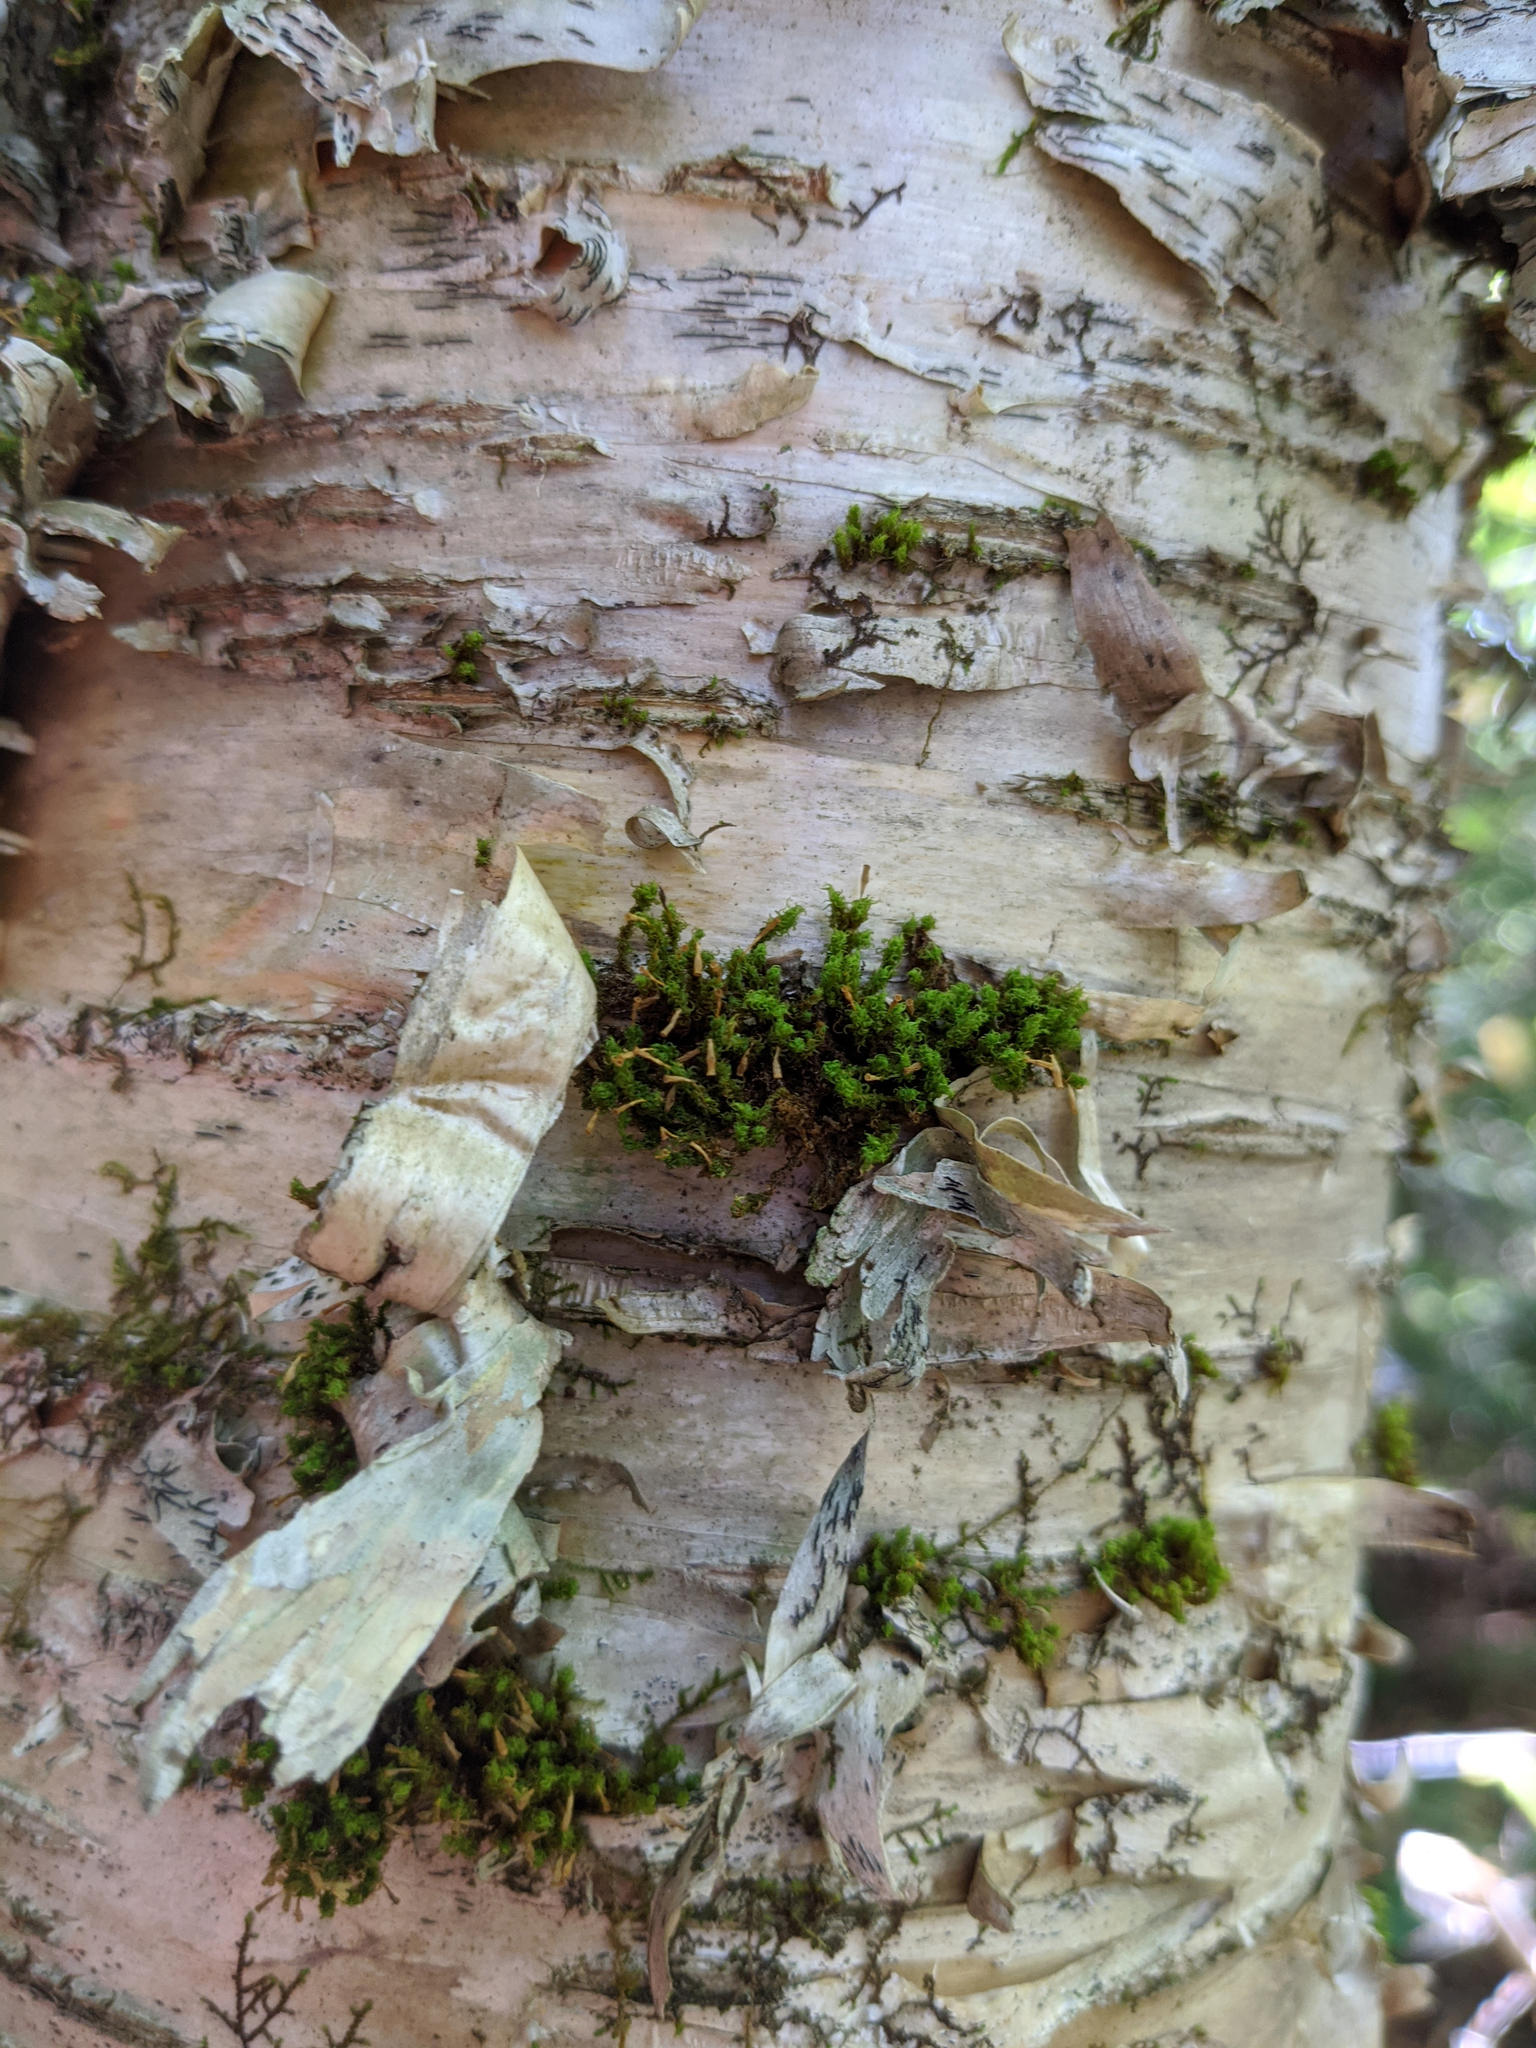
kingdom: Plantae
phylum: Tracheophyta
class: Magnoliopsida
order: Fagales
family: Betulaceae
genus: Betula
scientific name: Betula alleghaniensis
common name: Yellow birch
